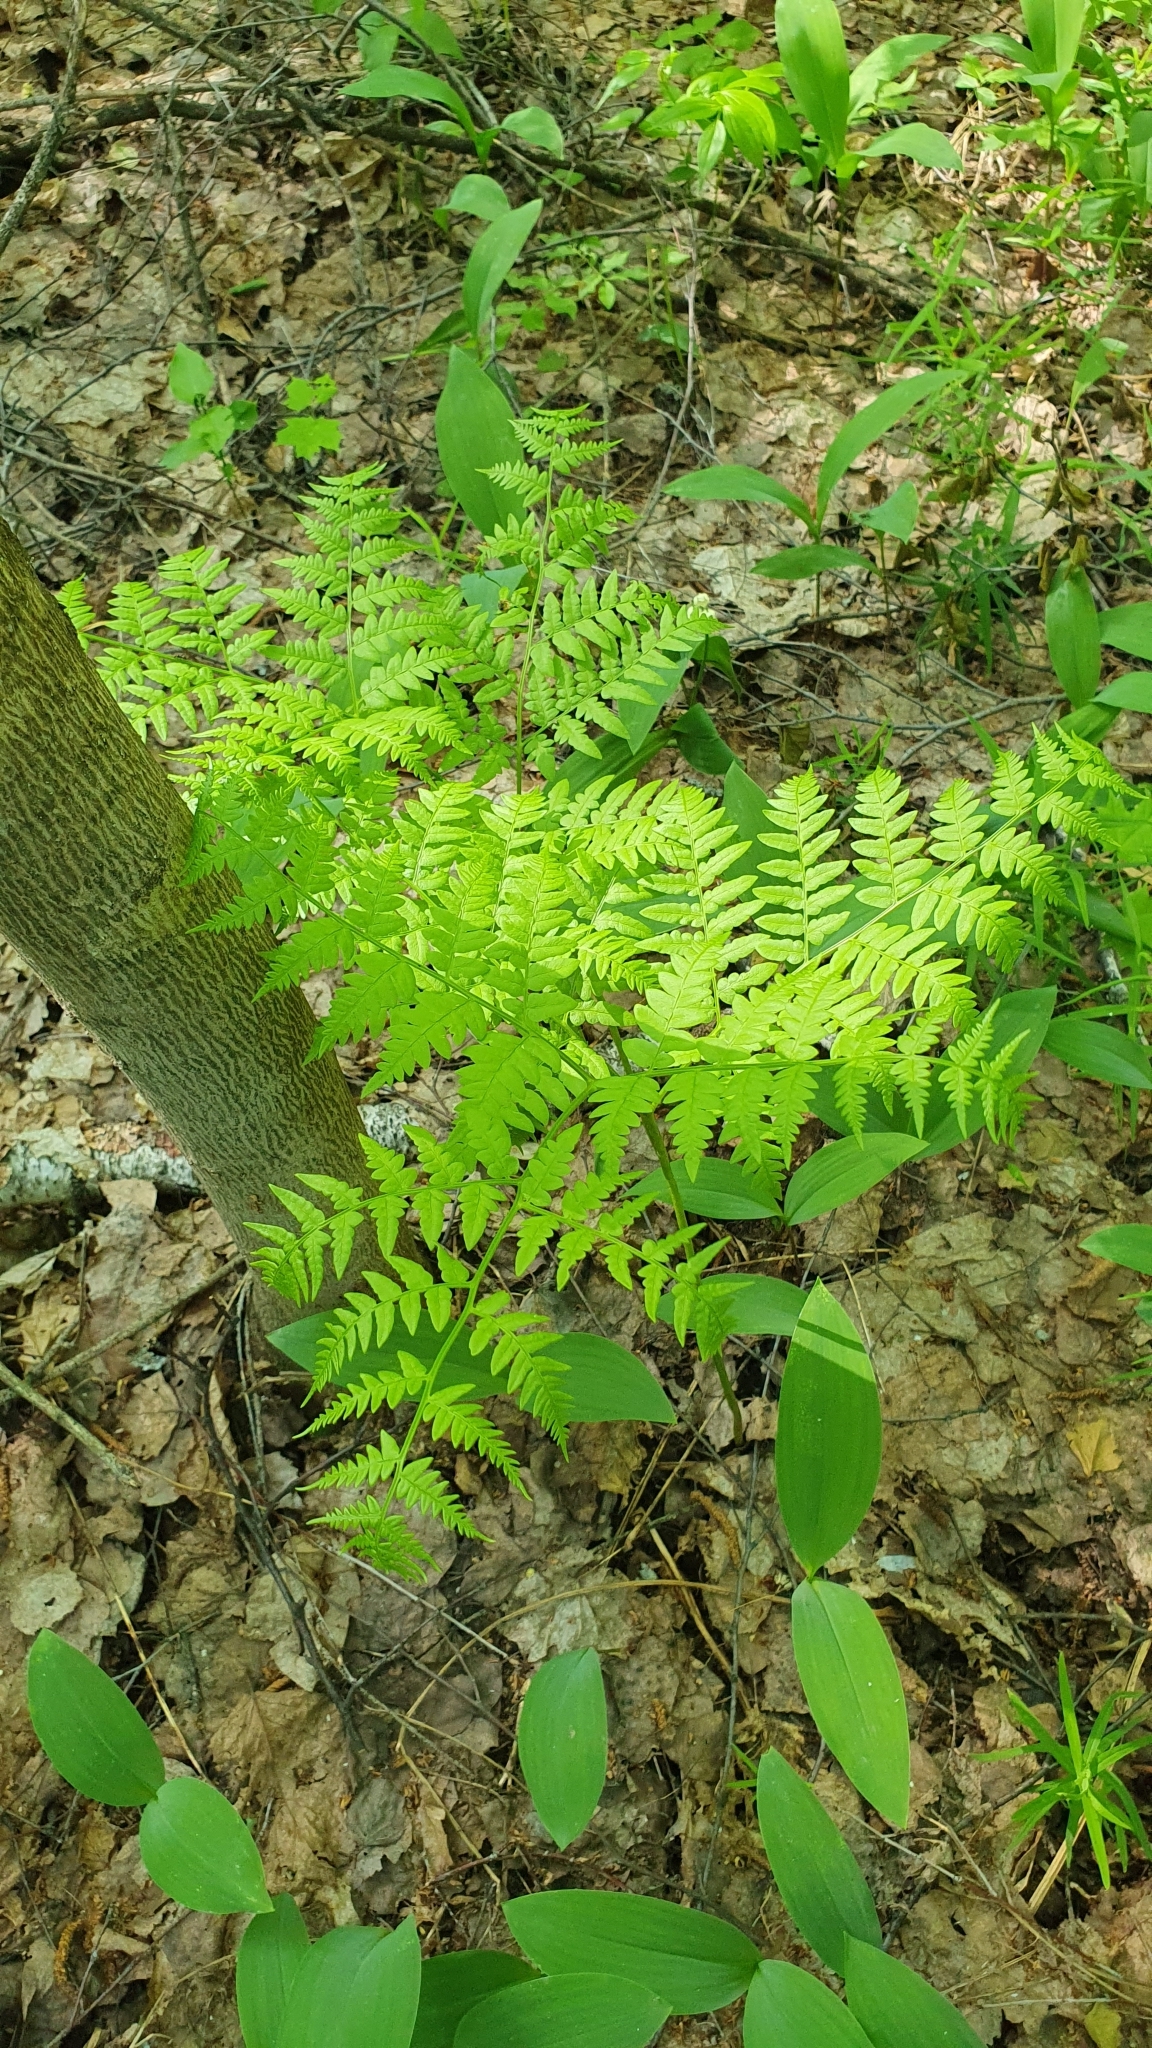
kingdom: Plantae
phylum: Tracheophyta
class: Polypodiopsida
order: Polypodiales
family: Dennstaedtiaceae
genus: Pteridium
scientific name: Pteridium aquilinum
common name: Bracken
